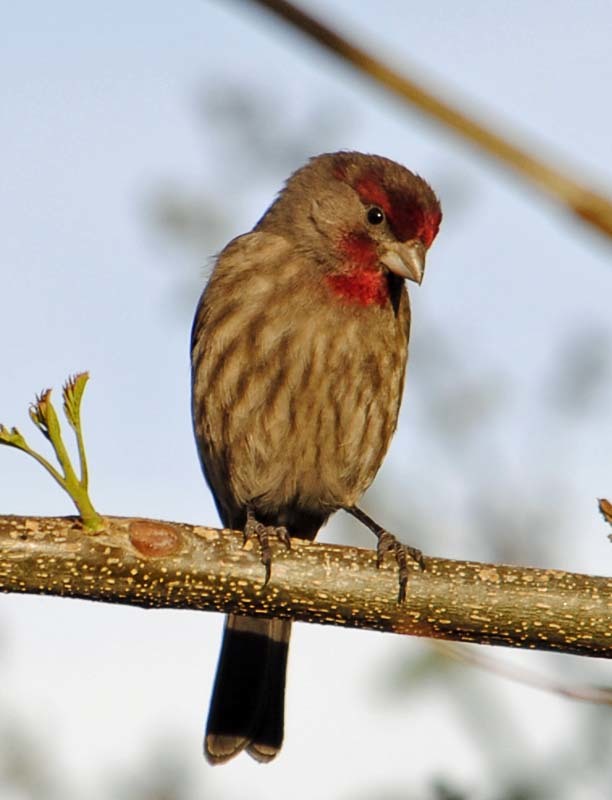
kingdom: Animalia
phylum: Chordata
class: Aves
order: Passeriformes
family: Fringillidae
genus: Haemorhous
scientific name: Haemorhous mexicanus
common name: House finch
